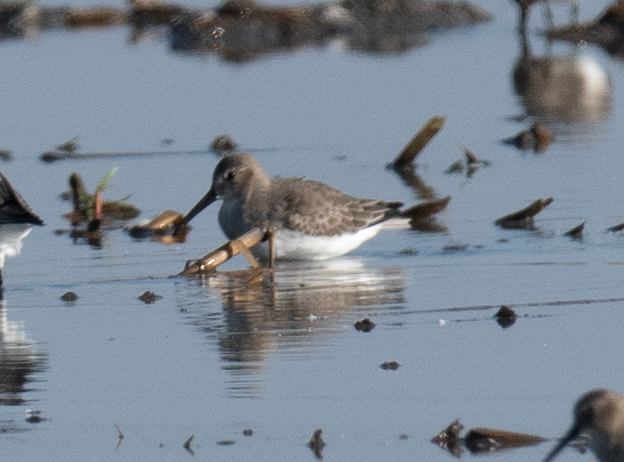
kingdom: Animalia
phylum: Chordata
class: Aves
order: Charadriiformes
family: Scolopacidae
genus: Calidris
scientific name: Calidris alpina
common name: Dunlin
